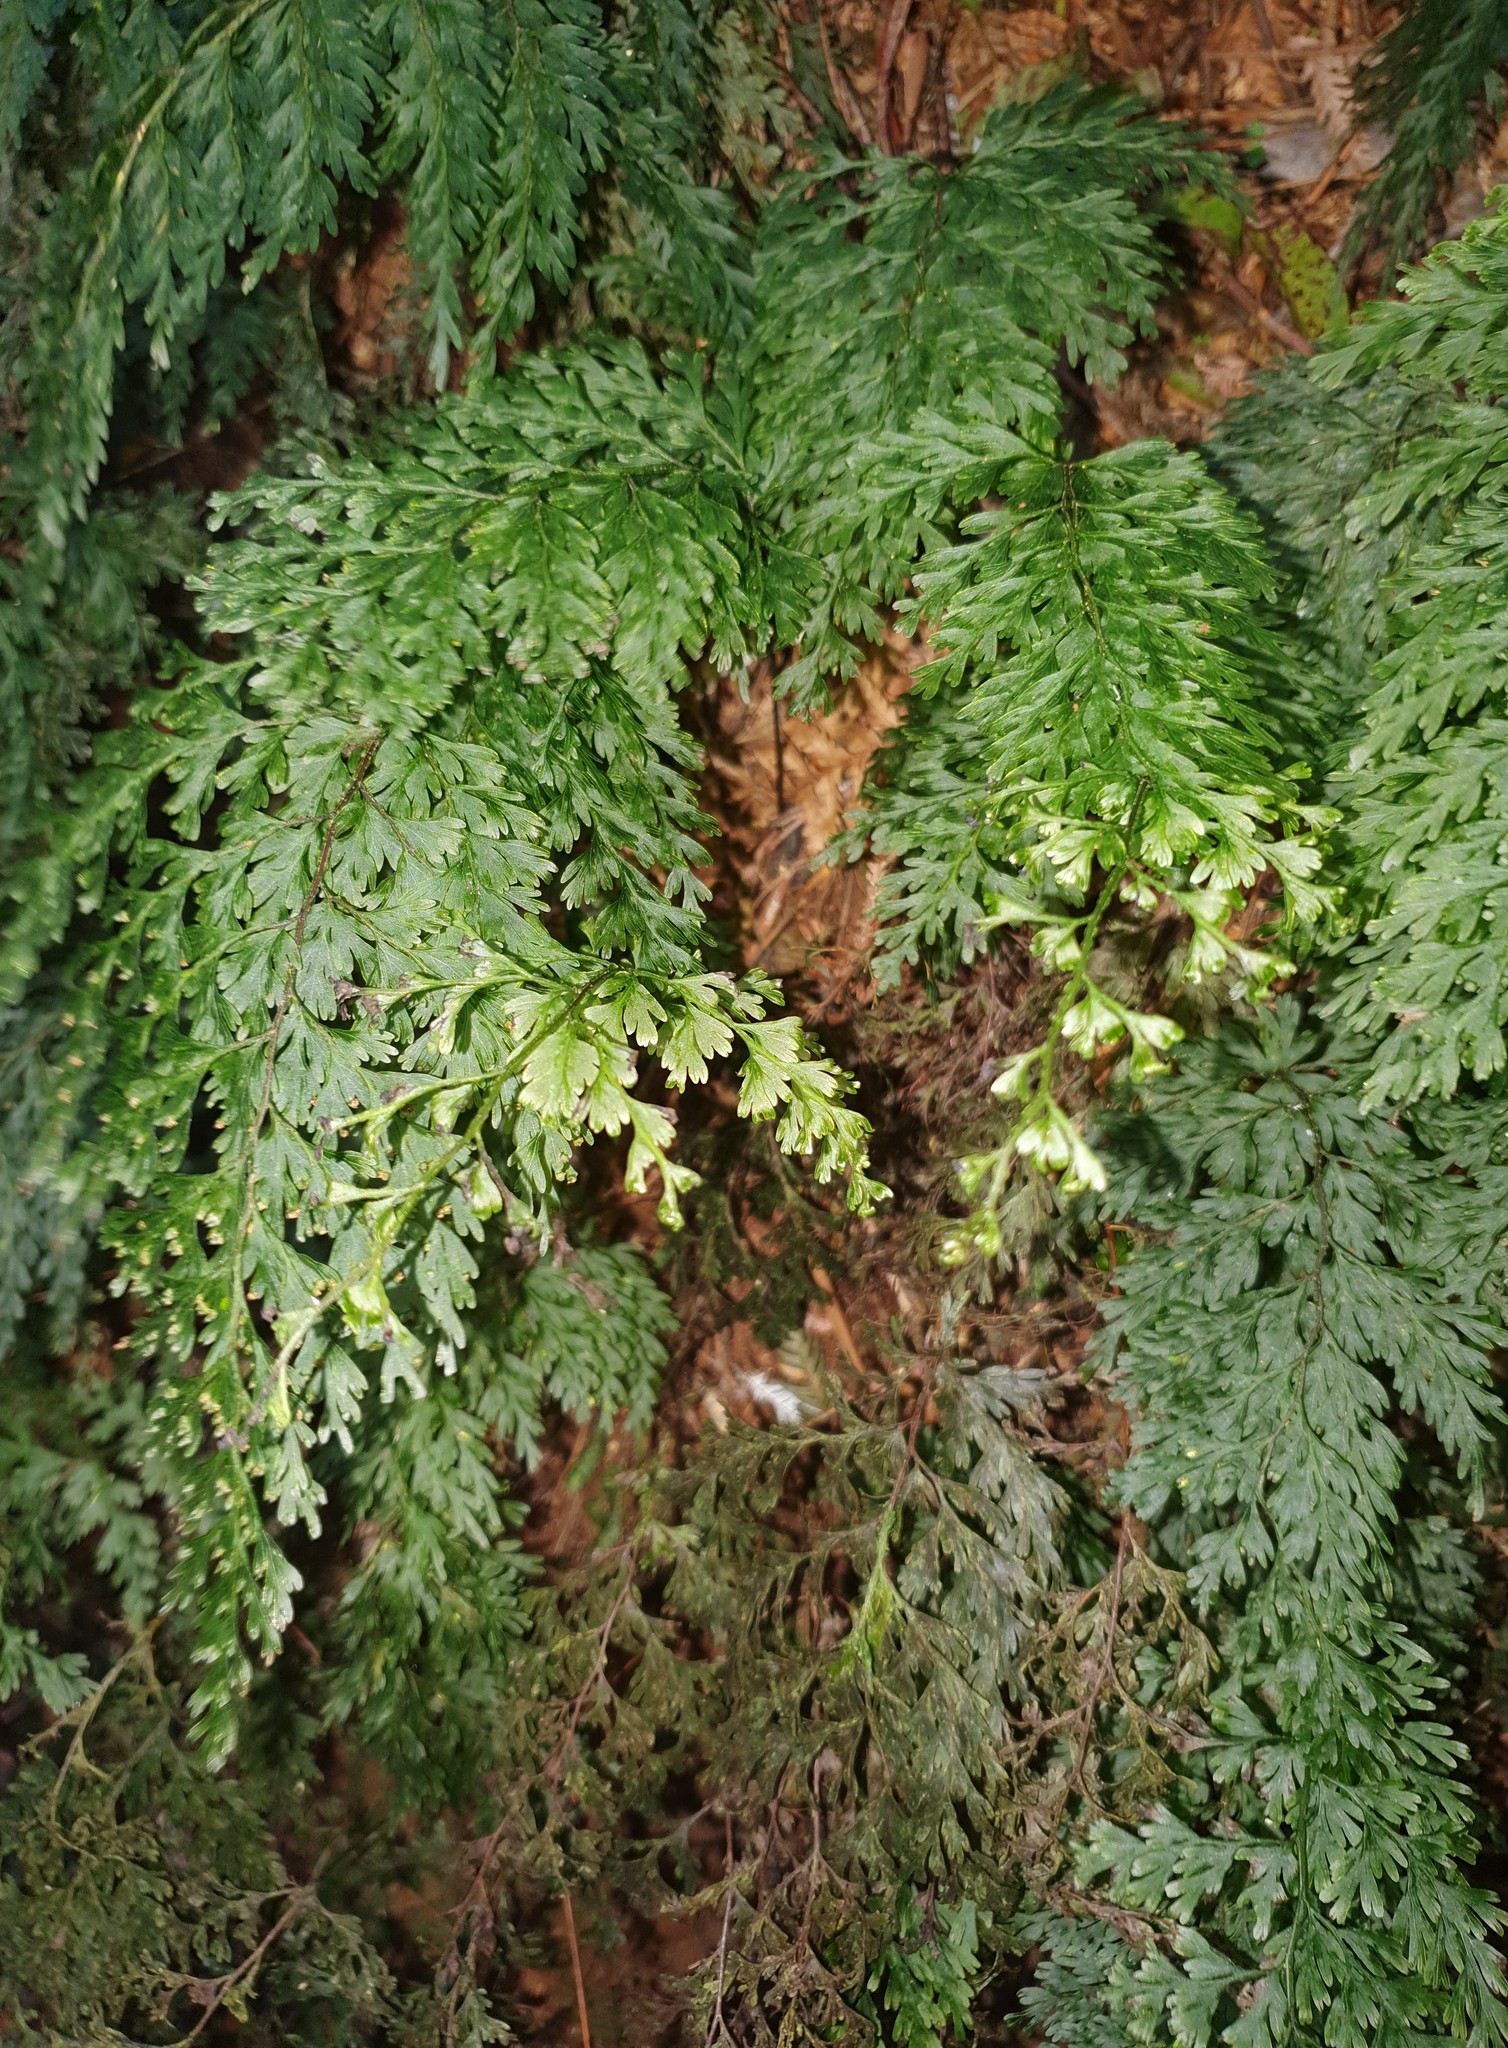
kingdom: Plantae
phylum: Tracheophyta
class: Polypodiopsida
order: Hymenophyllales
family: Hymenophyllaceae
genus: Hymenophyllum
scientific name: Hymenophyllum demissum
